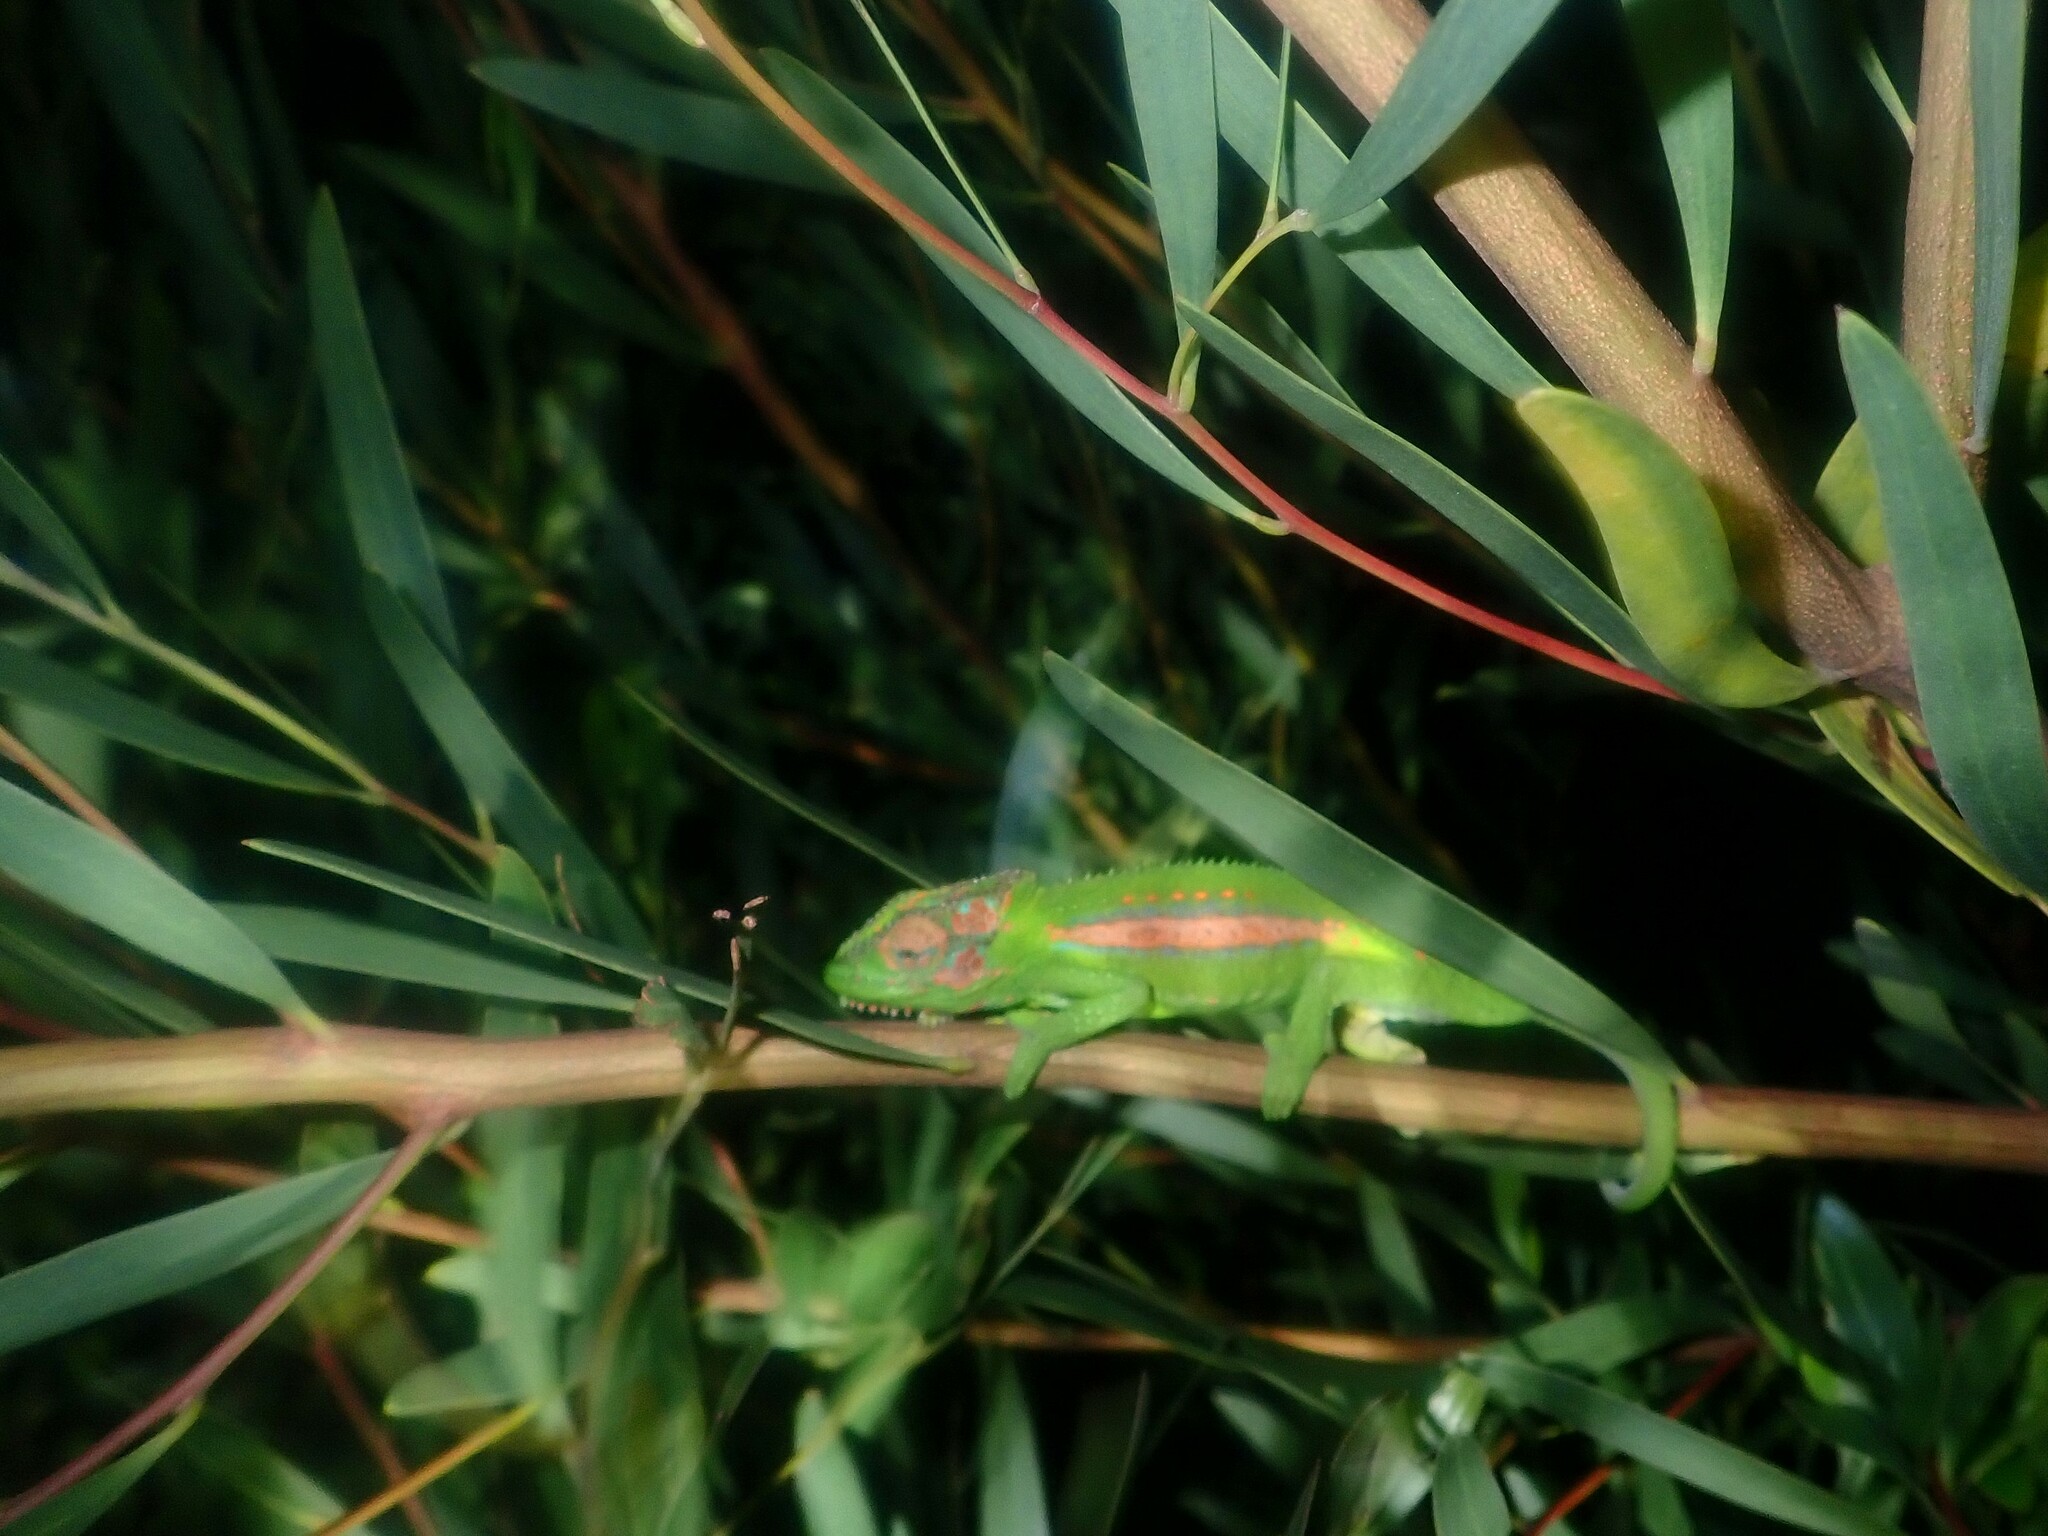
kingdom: Animalia
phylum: Chordata
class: Squamata
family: Chamaeleonidae
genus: Bradypodion
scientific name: Bradypodion pumilum
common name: Cape dwarf chameleon
